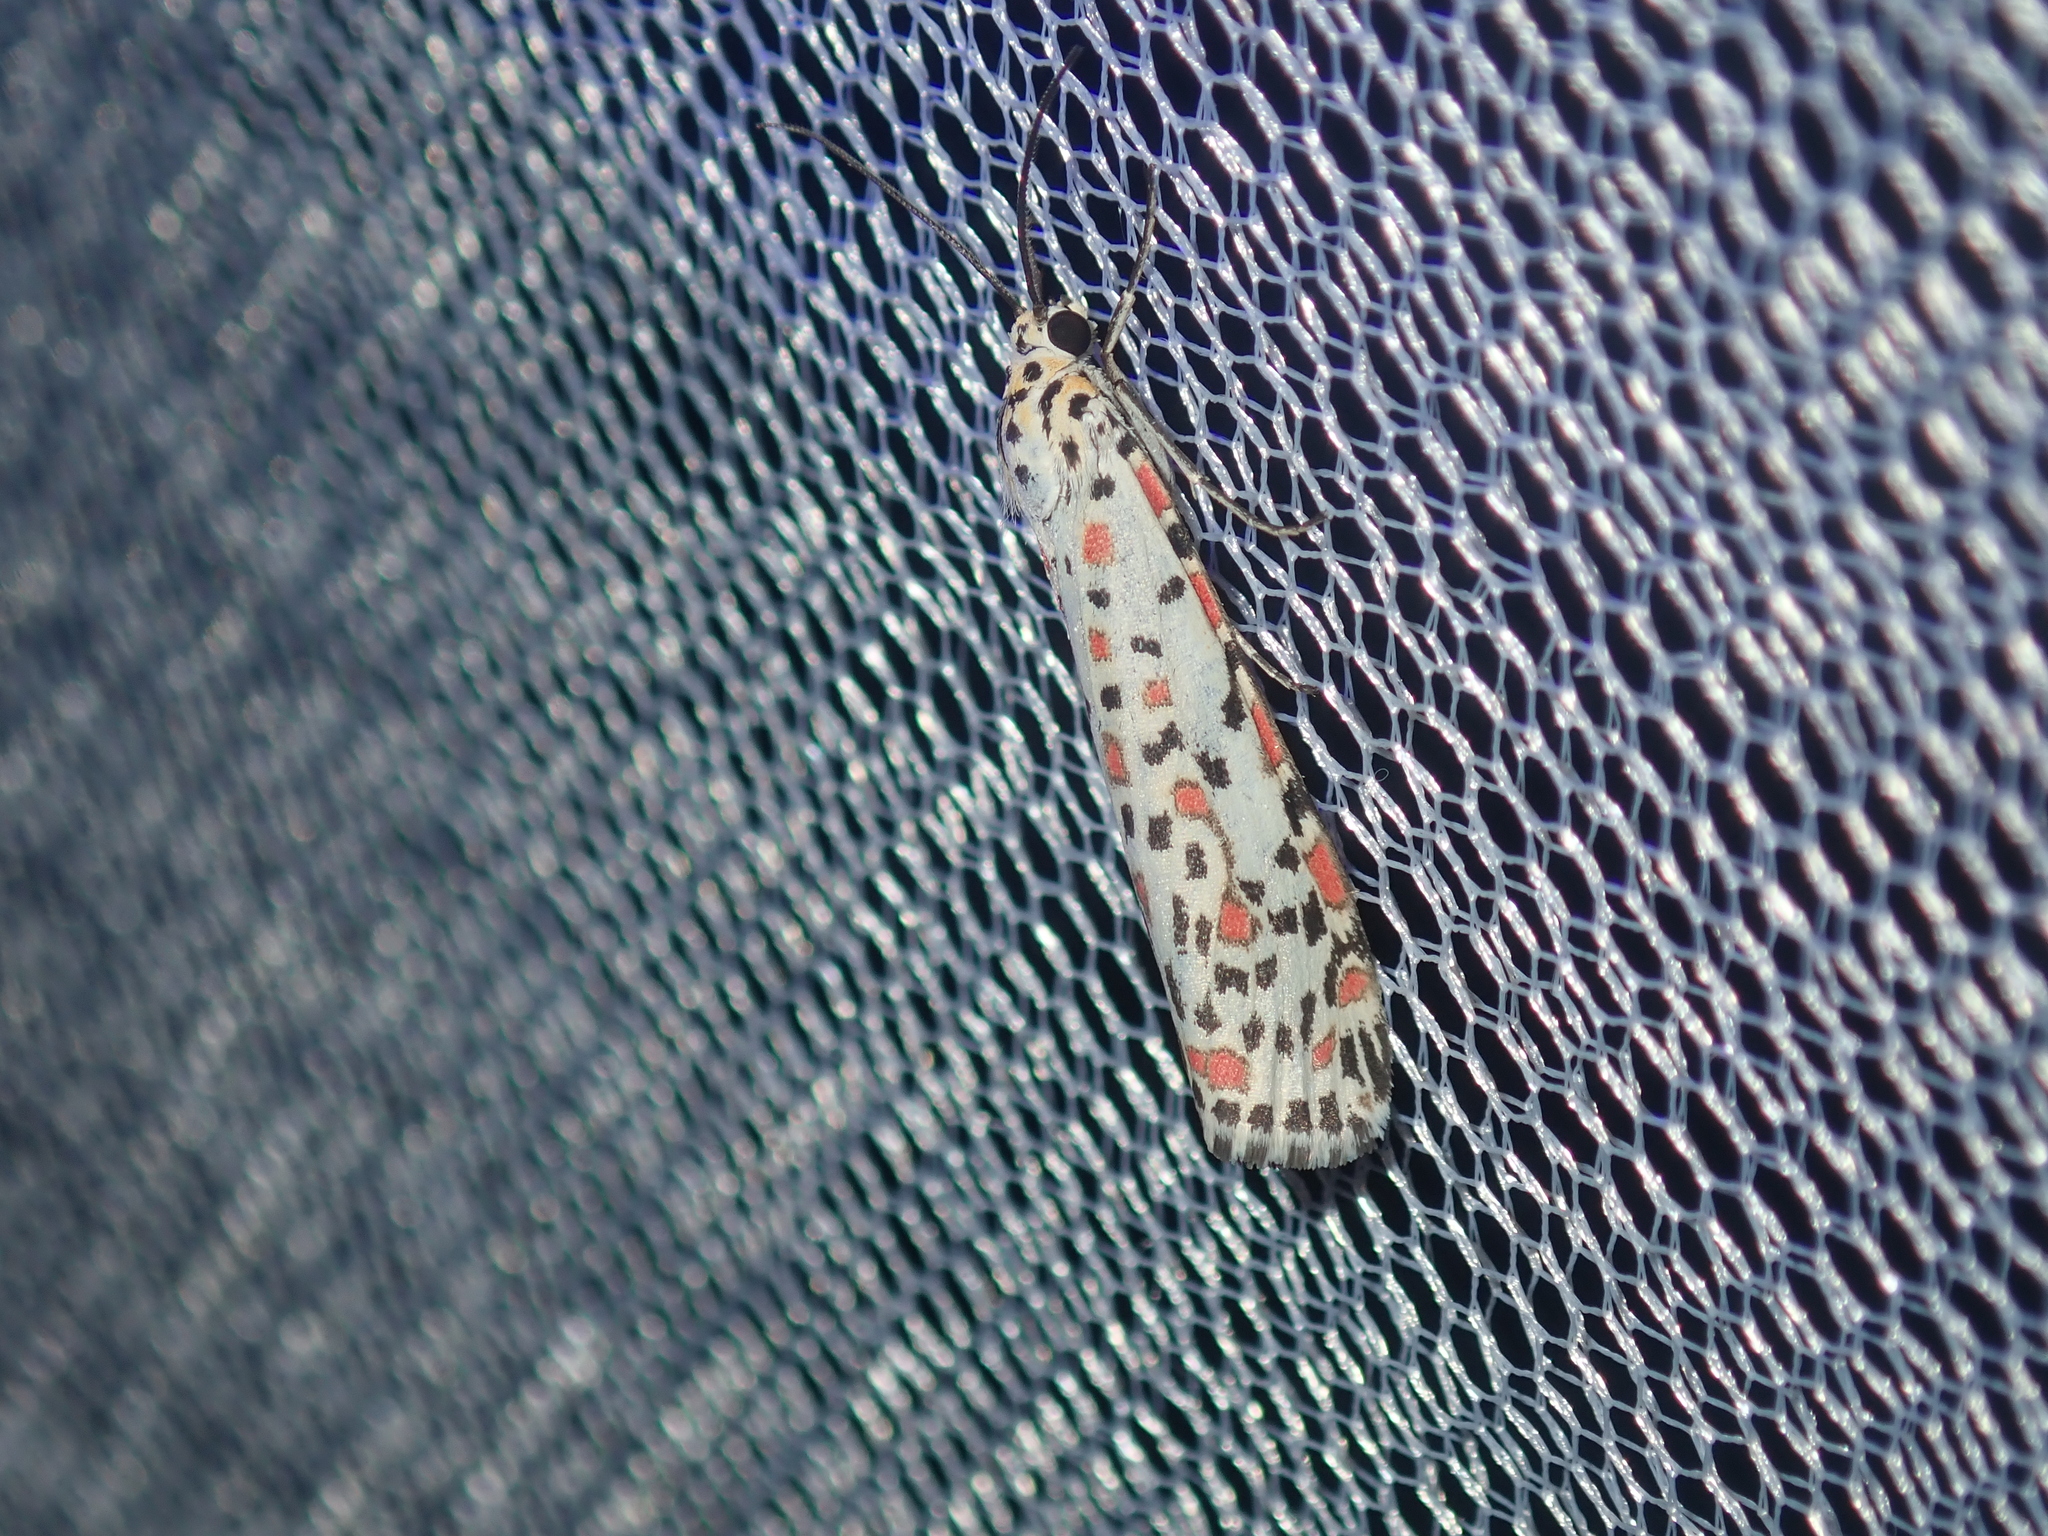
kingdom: Animalia
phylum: Arthropoda
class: Insecta
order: Lepidoptera
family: Erebidae
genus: Utetheisa
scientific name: Utetheisa pulchelloides
